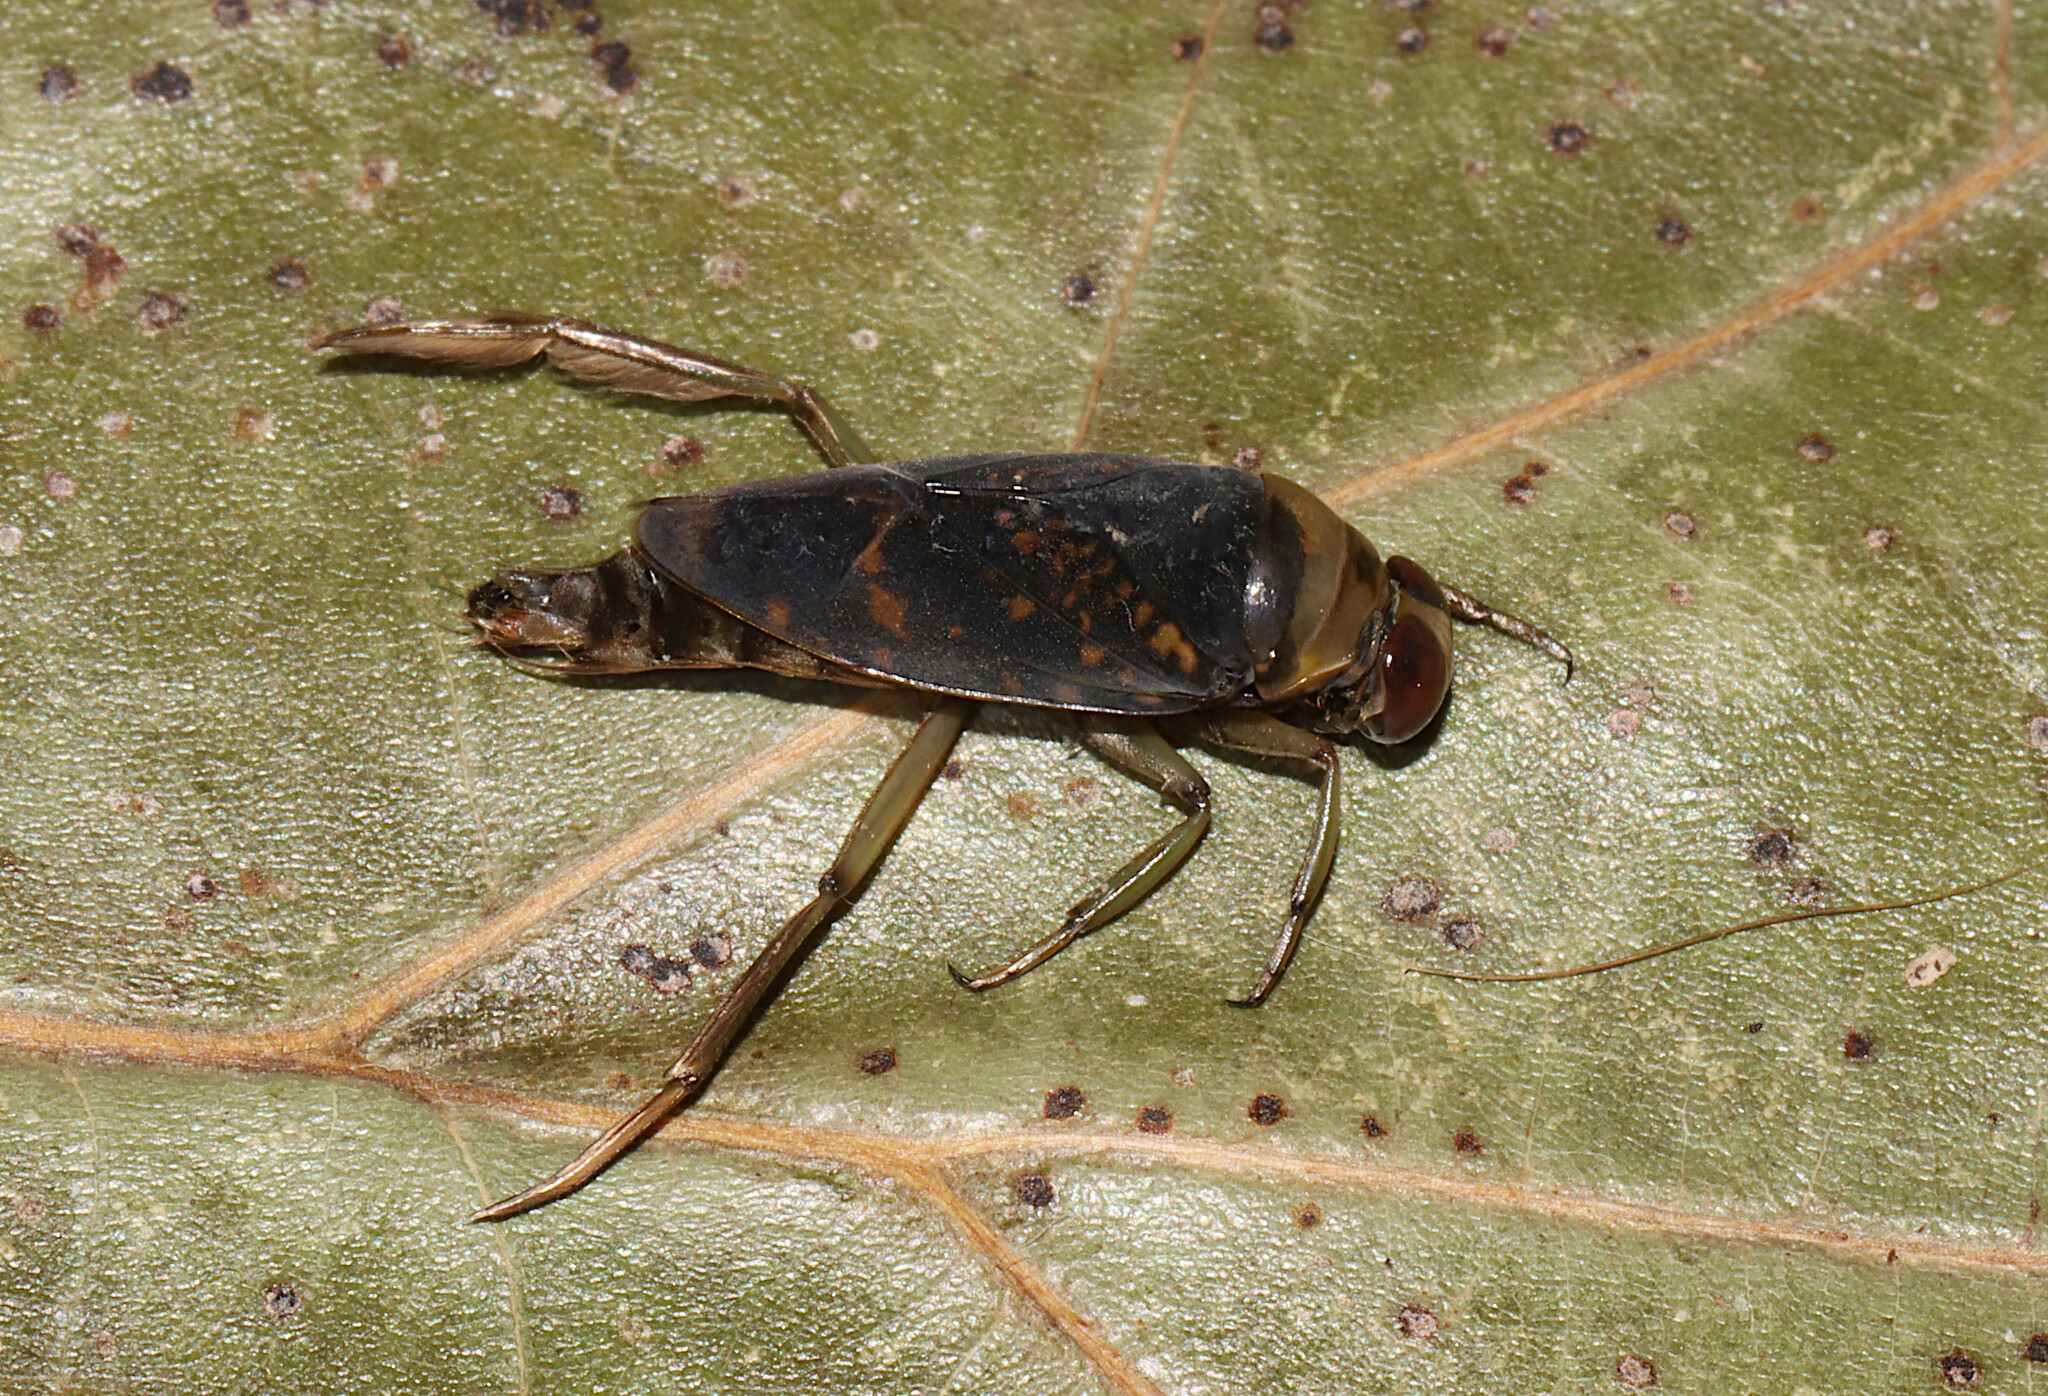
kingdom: Animalia
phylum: Arthropoda
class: Insecta
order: Hemiptera
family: Notonectidae
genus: Notonecta
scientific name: Notonecta irrorata
